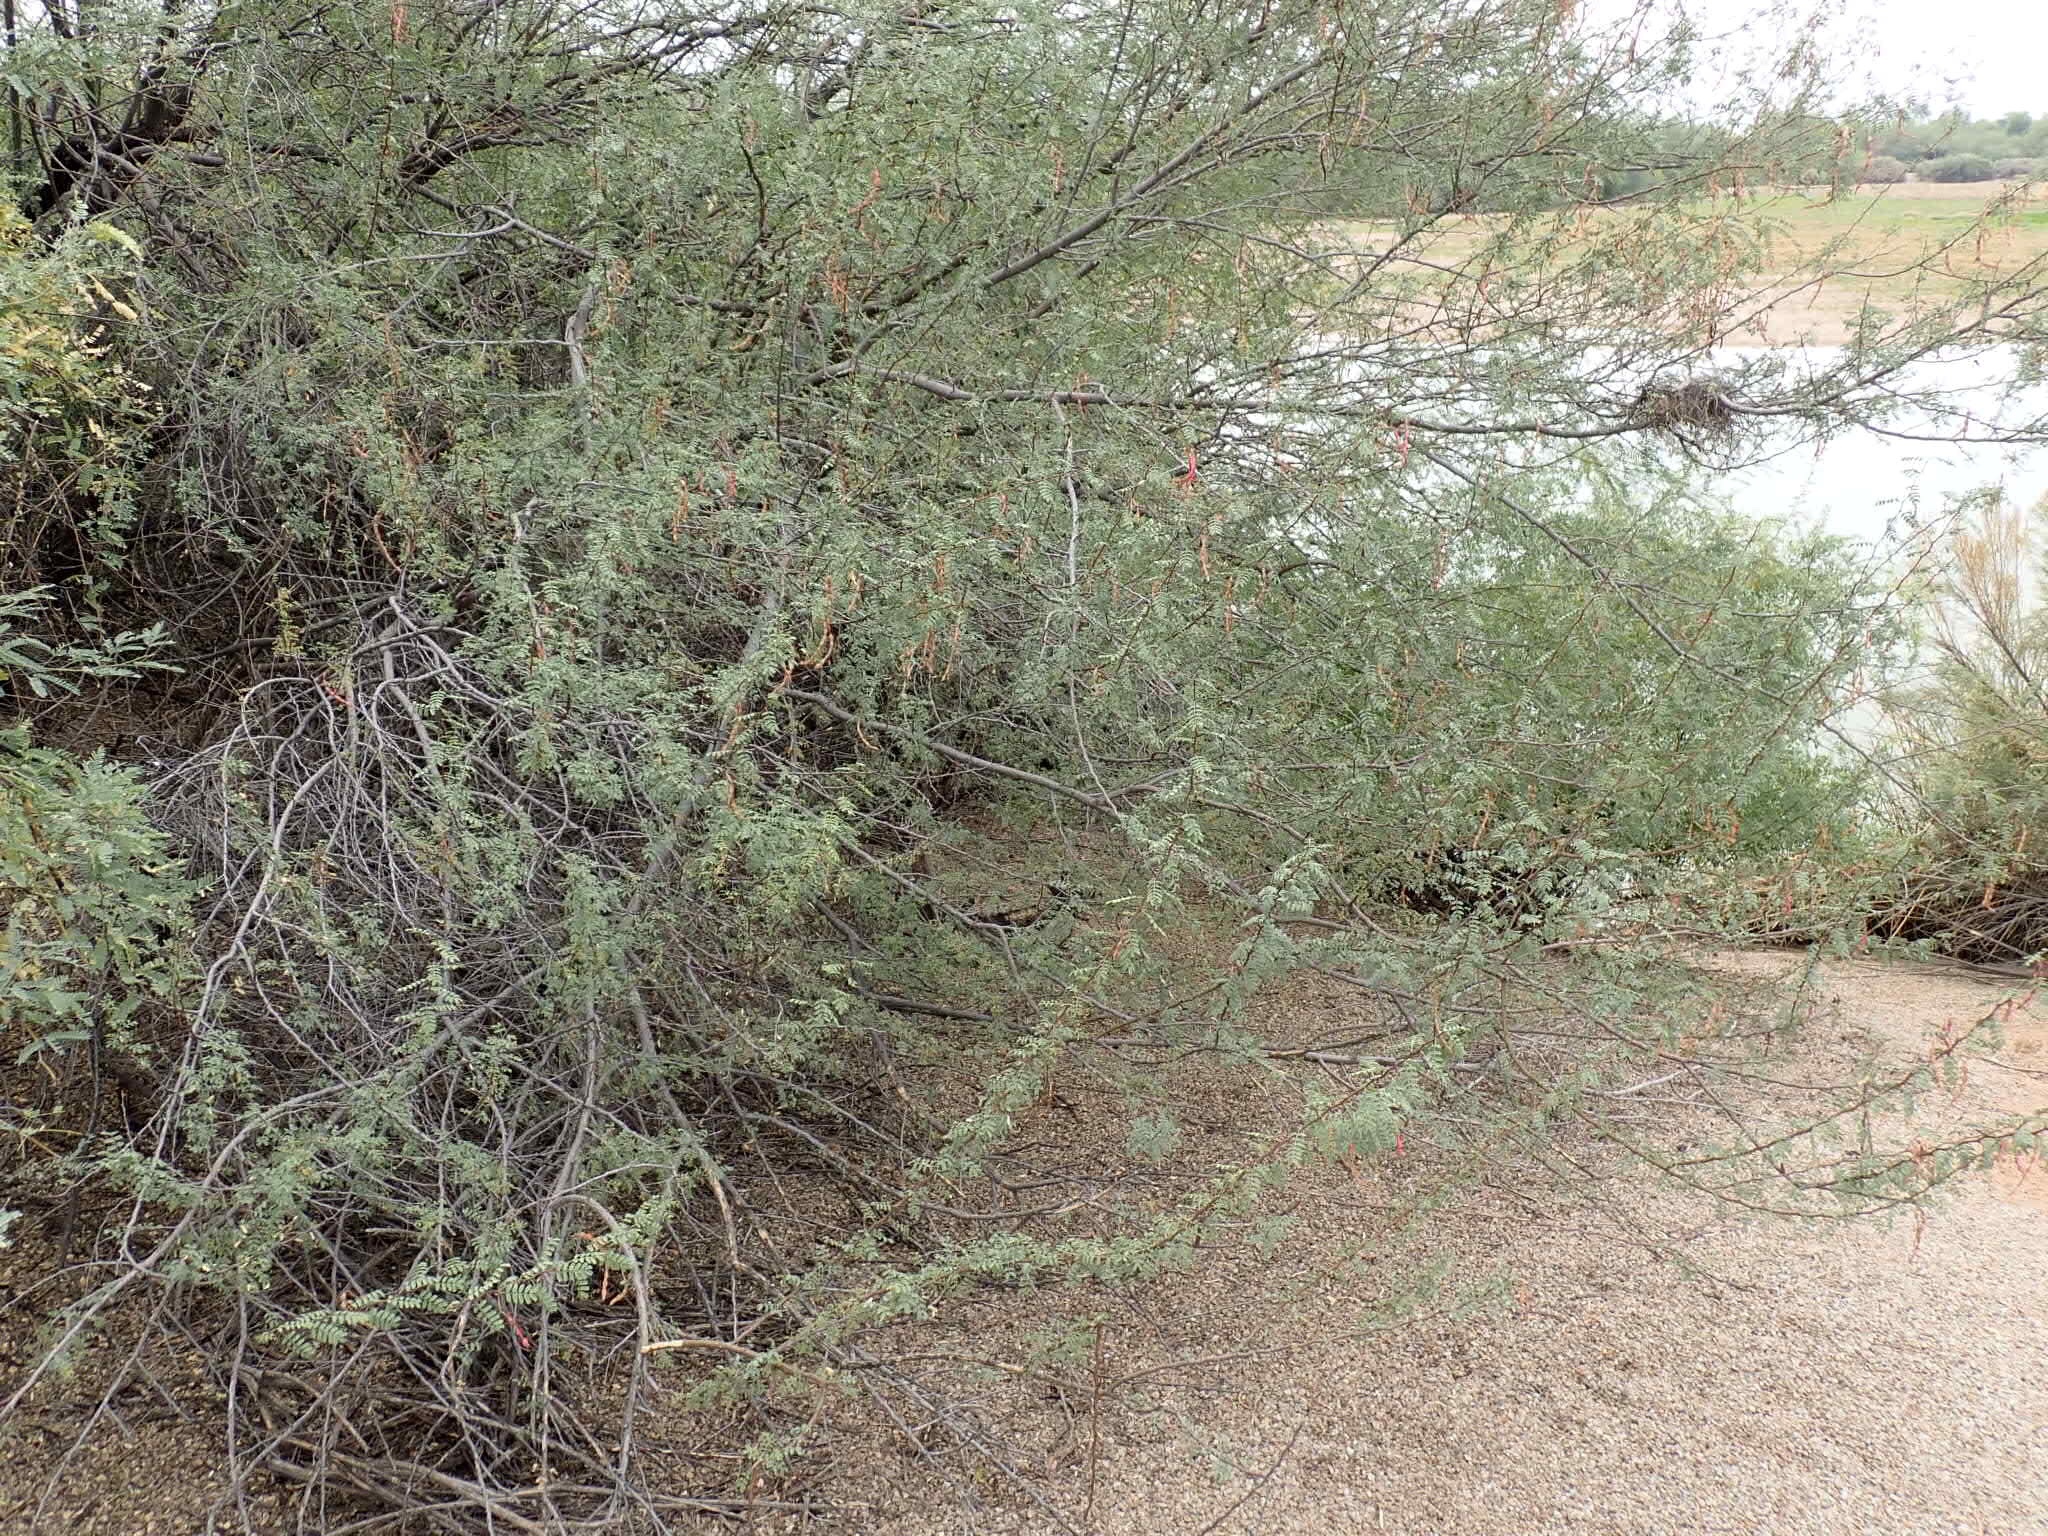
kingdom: Plantae
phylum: Tracheophyta
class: Magnoliopsida
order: Fabales
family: Fabaceae
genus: Vachellia
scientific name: Vachellia constricta
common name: Mescat acacia
